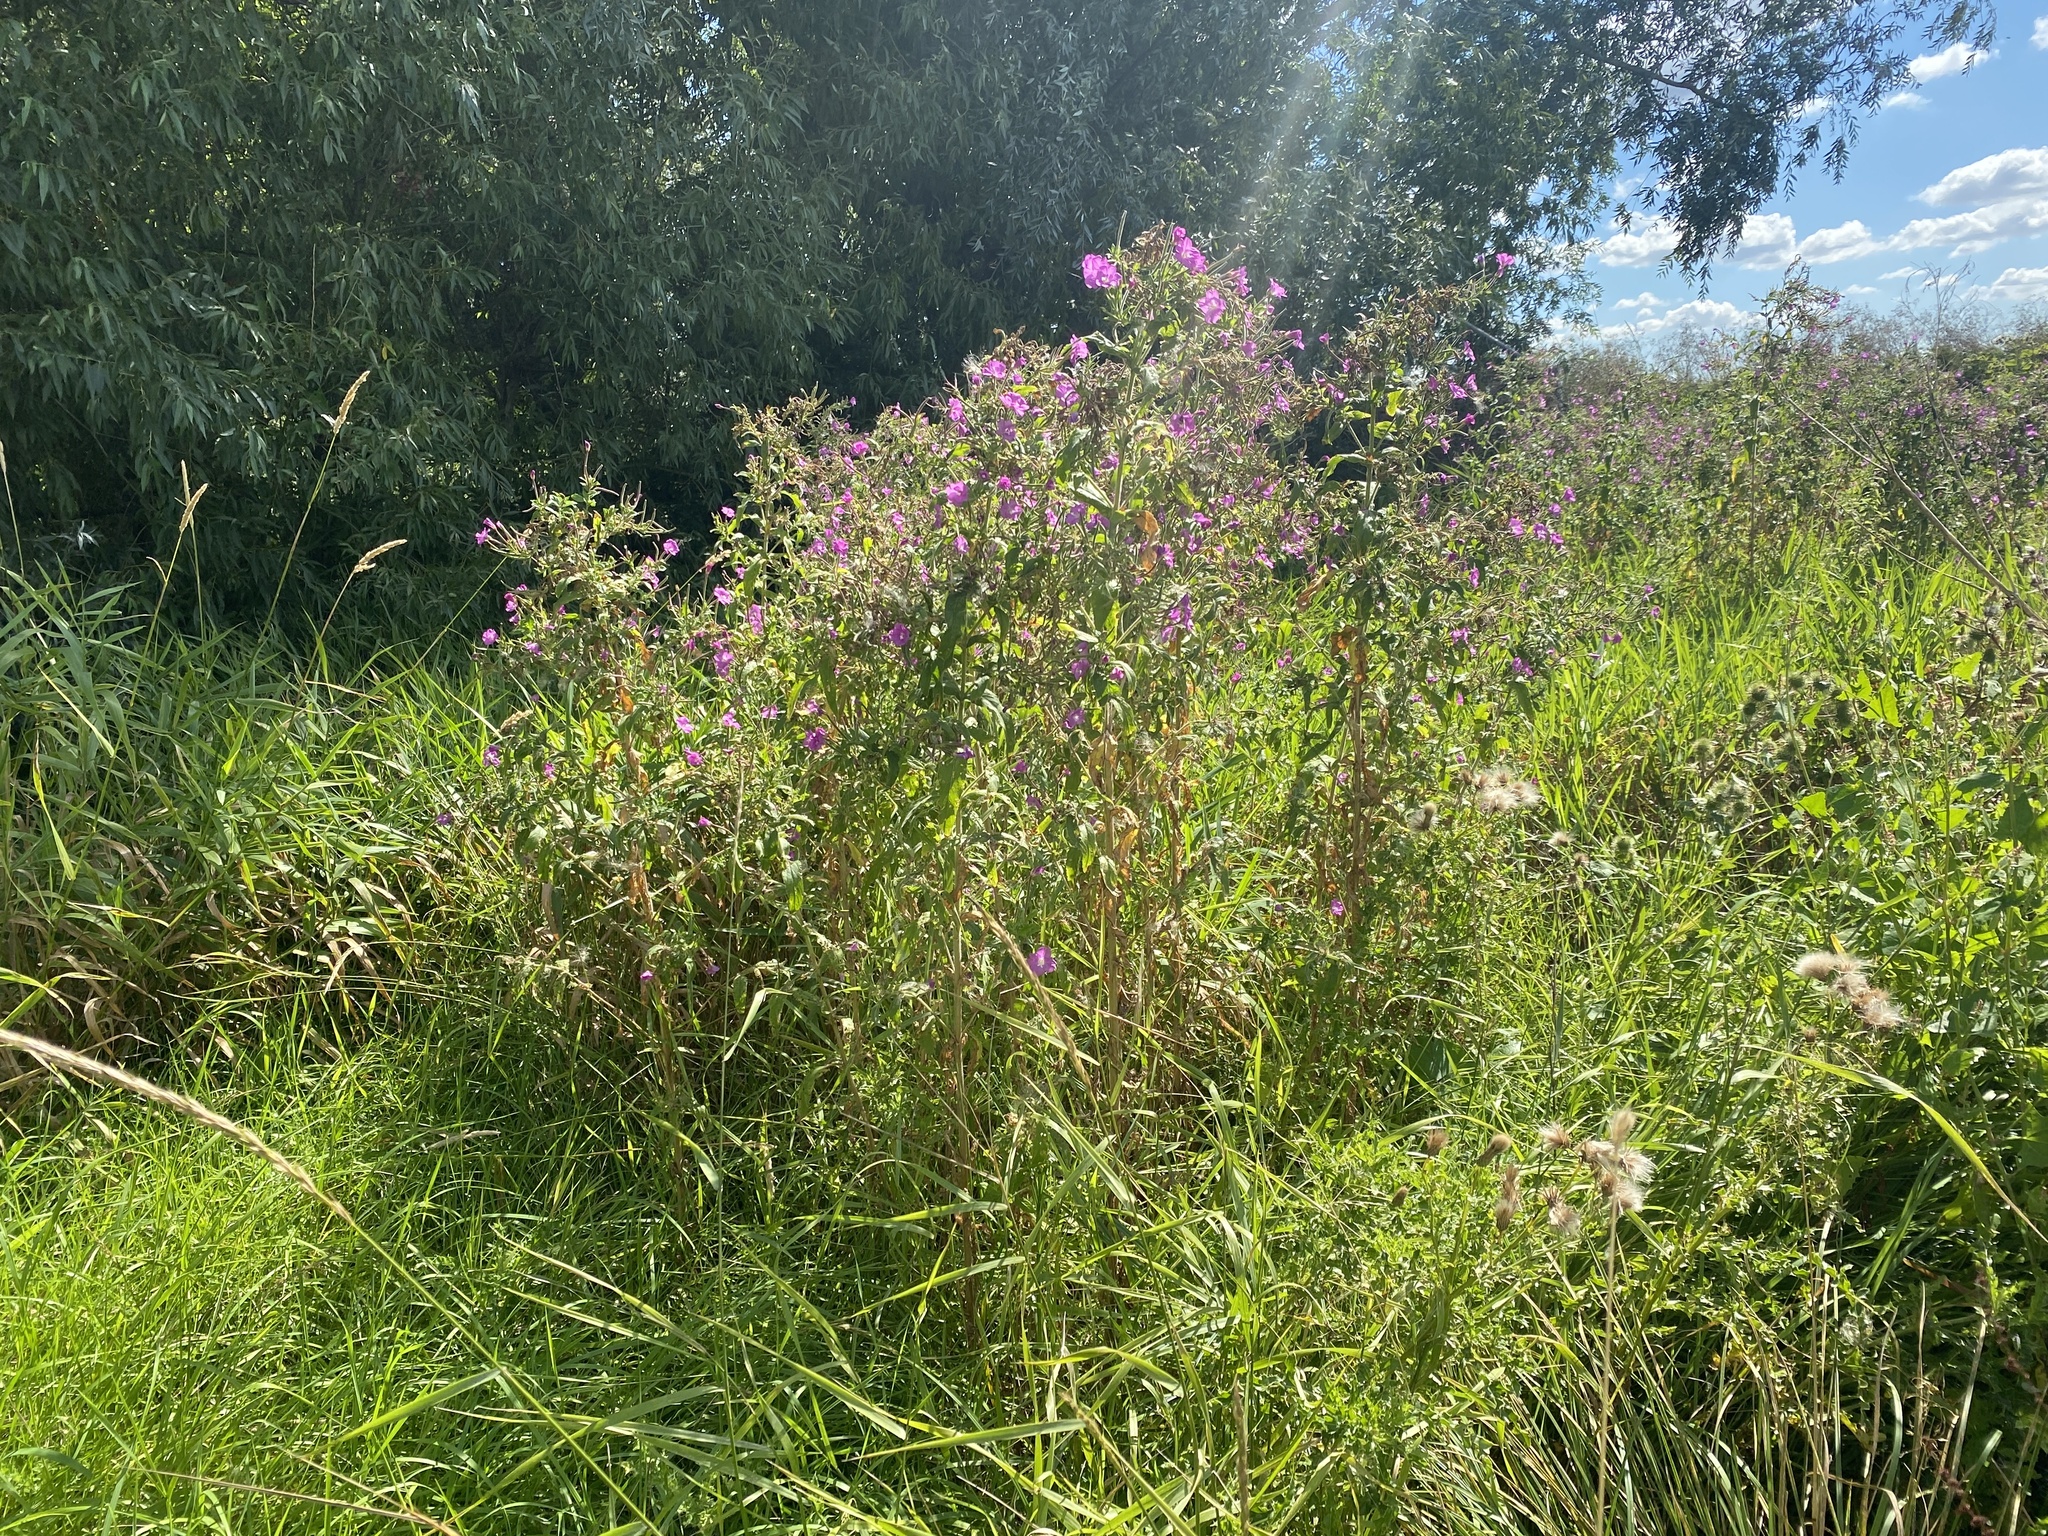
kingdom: Plantae
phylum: Tracheophyta
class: Magnoliopsida
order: Myrtales
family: Onagraceae
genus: Epilobium
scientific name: Epilobium hirsutum
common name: Great willowherb
